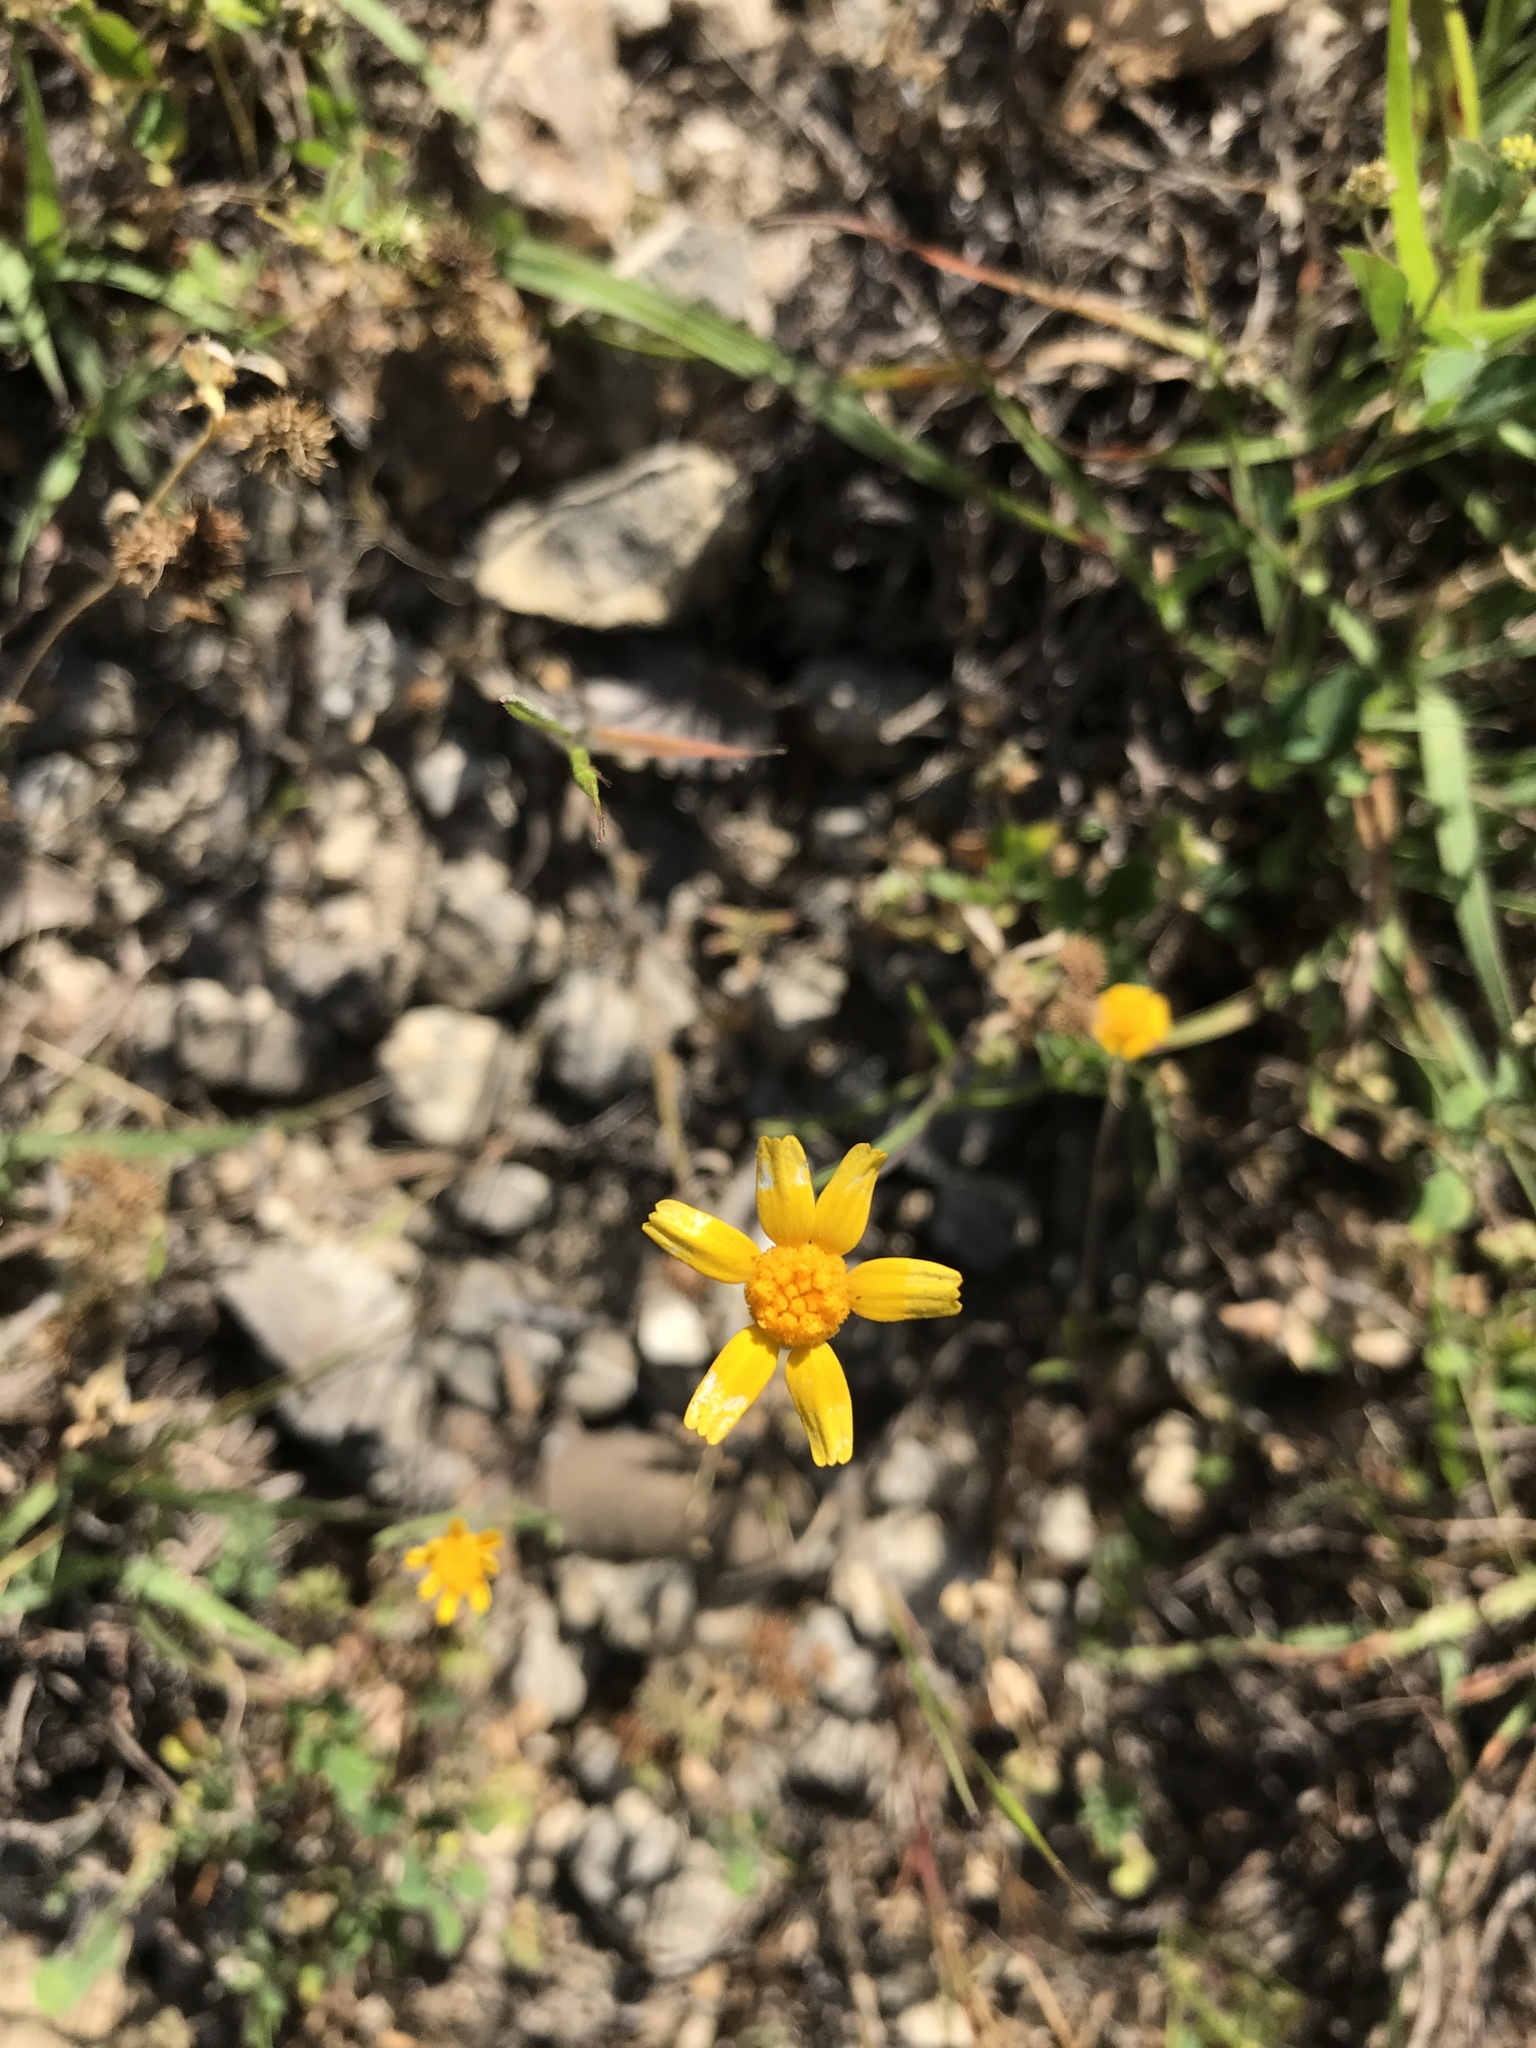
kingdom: Plantae
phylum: Tracheophyta
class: Magnoliopsida
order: Asterales
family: Asteraceae
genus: Tetraneuris
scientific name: Tetraneuris linearifolia
